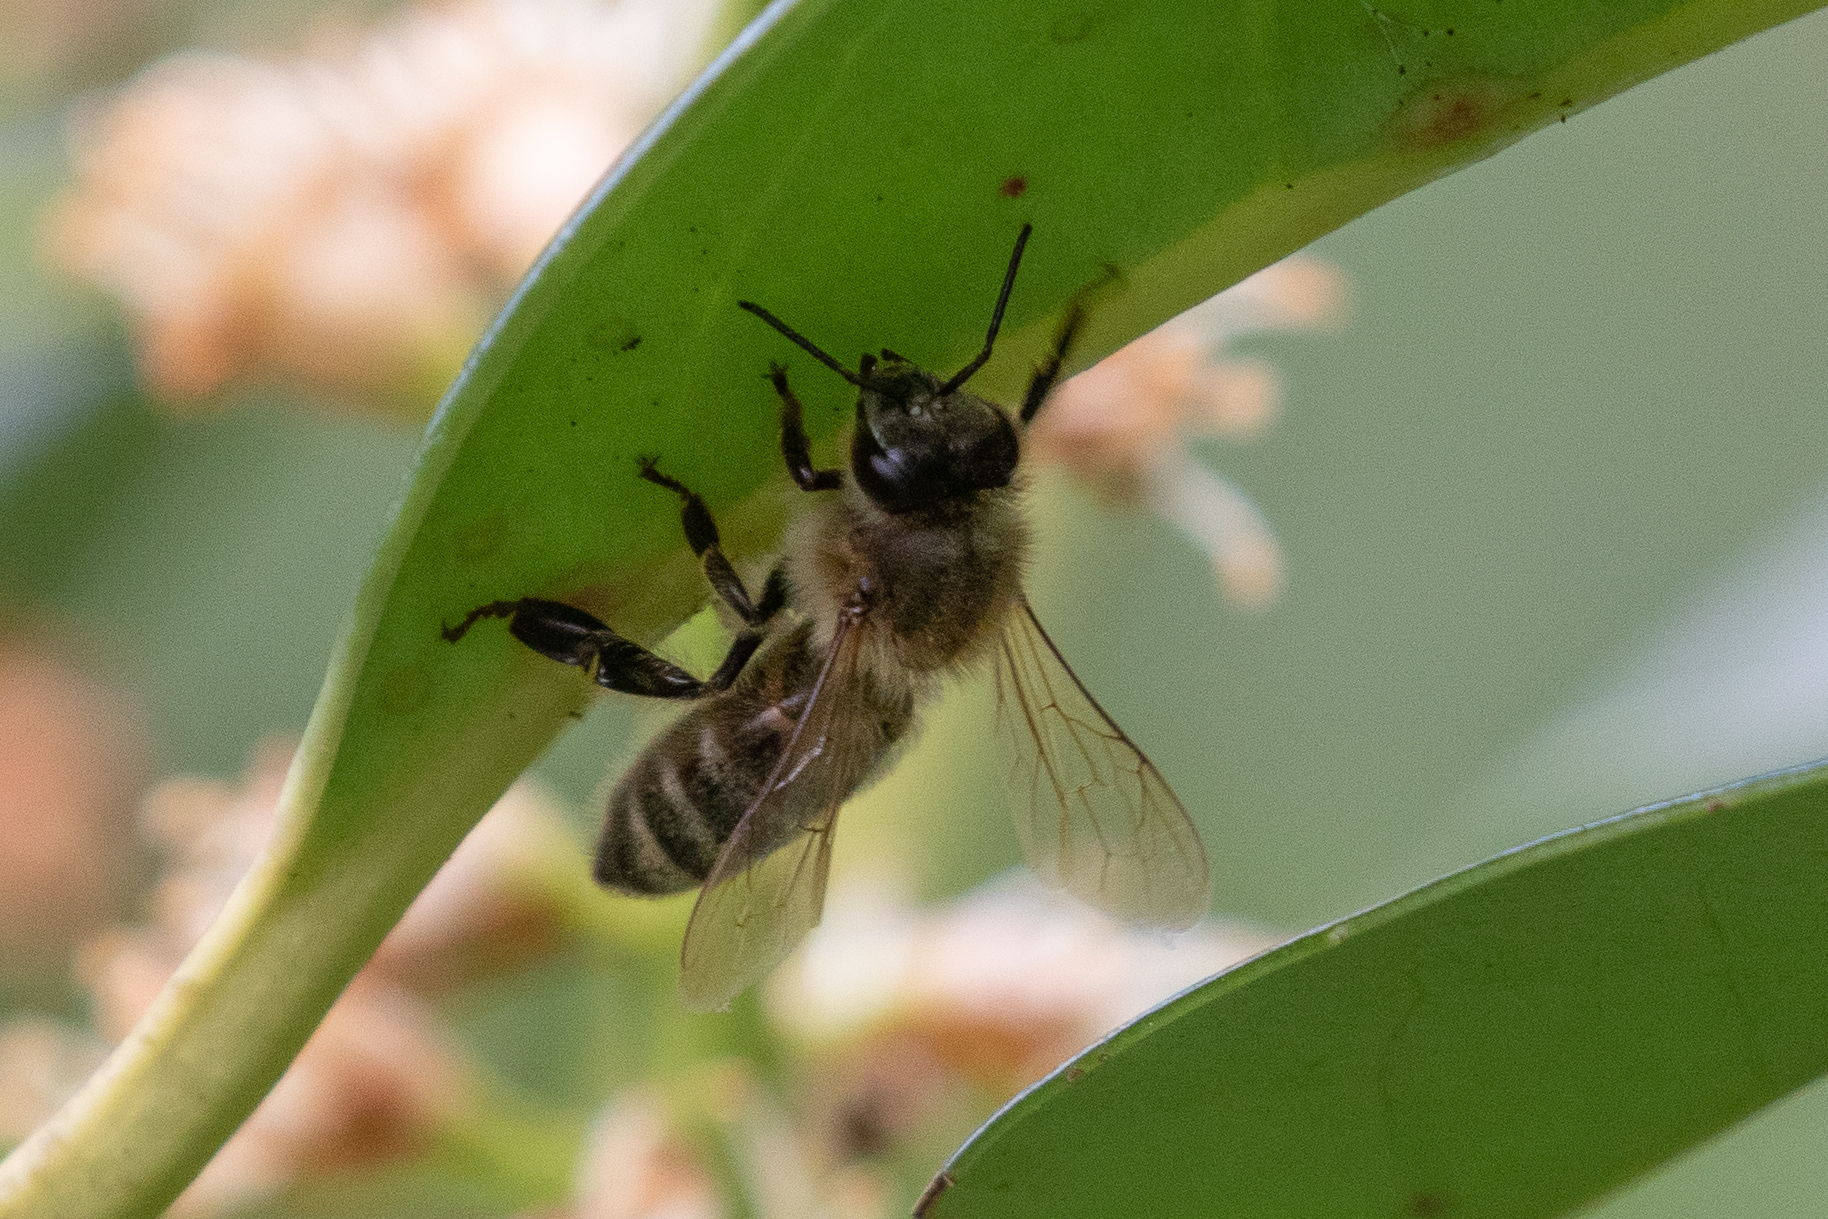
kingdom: Animalia
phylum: Arthropoda
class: Insecta
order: Hymenoptera
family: Apidae
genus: Apis
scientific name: Apis mellifera
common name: Honey bee
